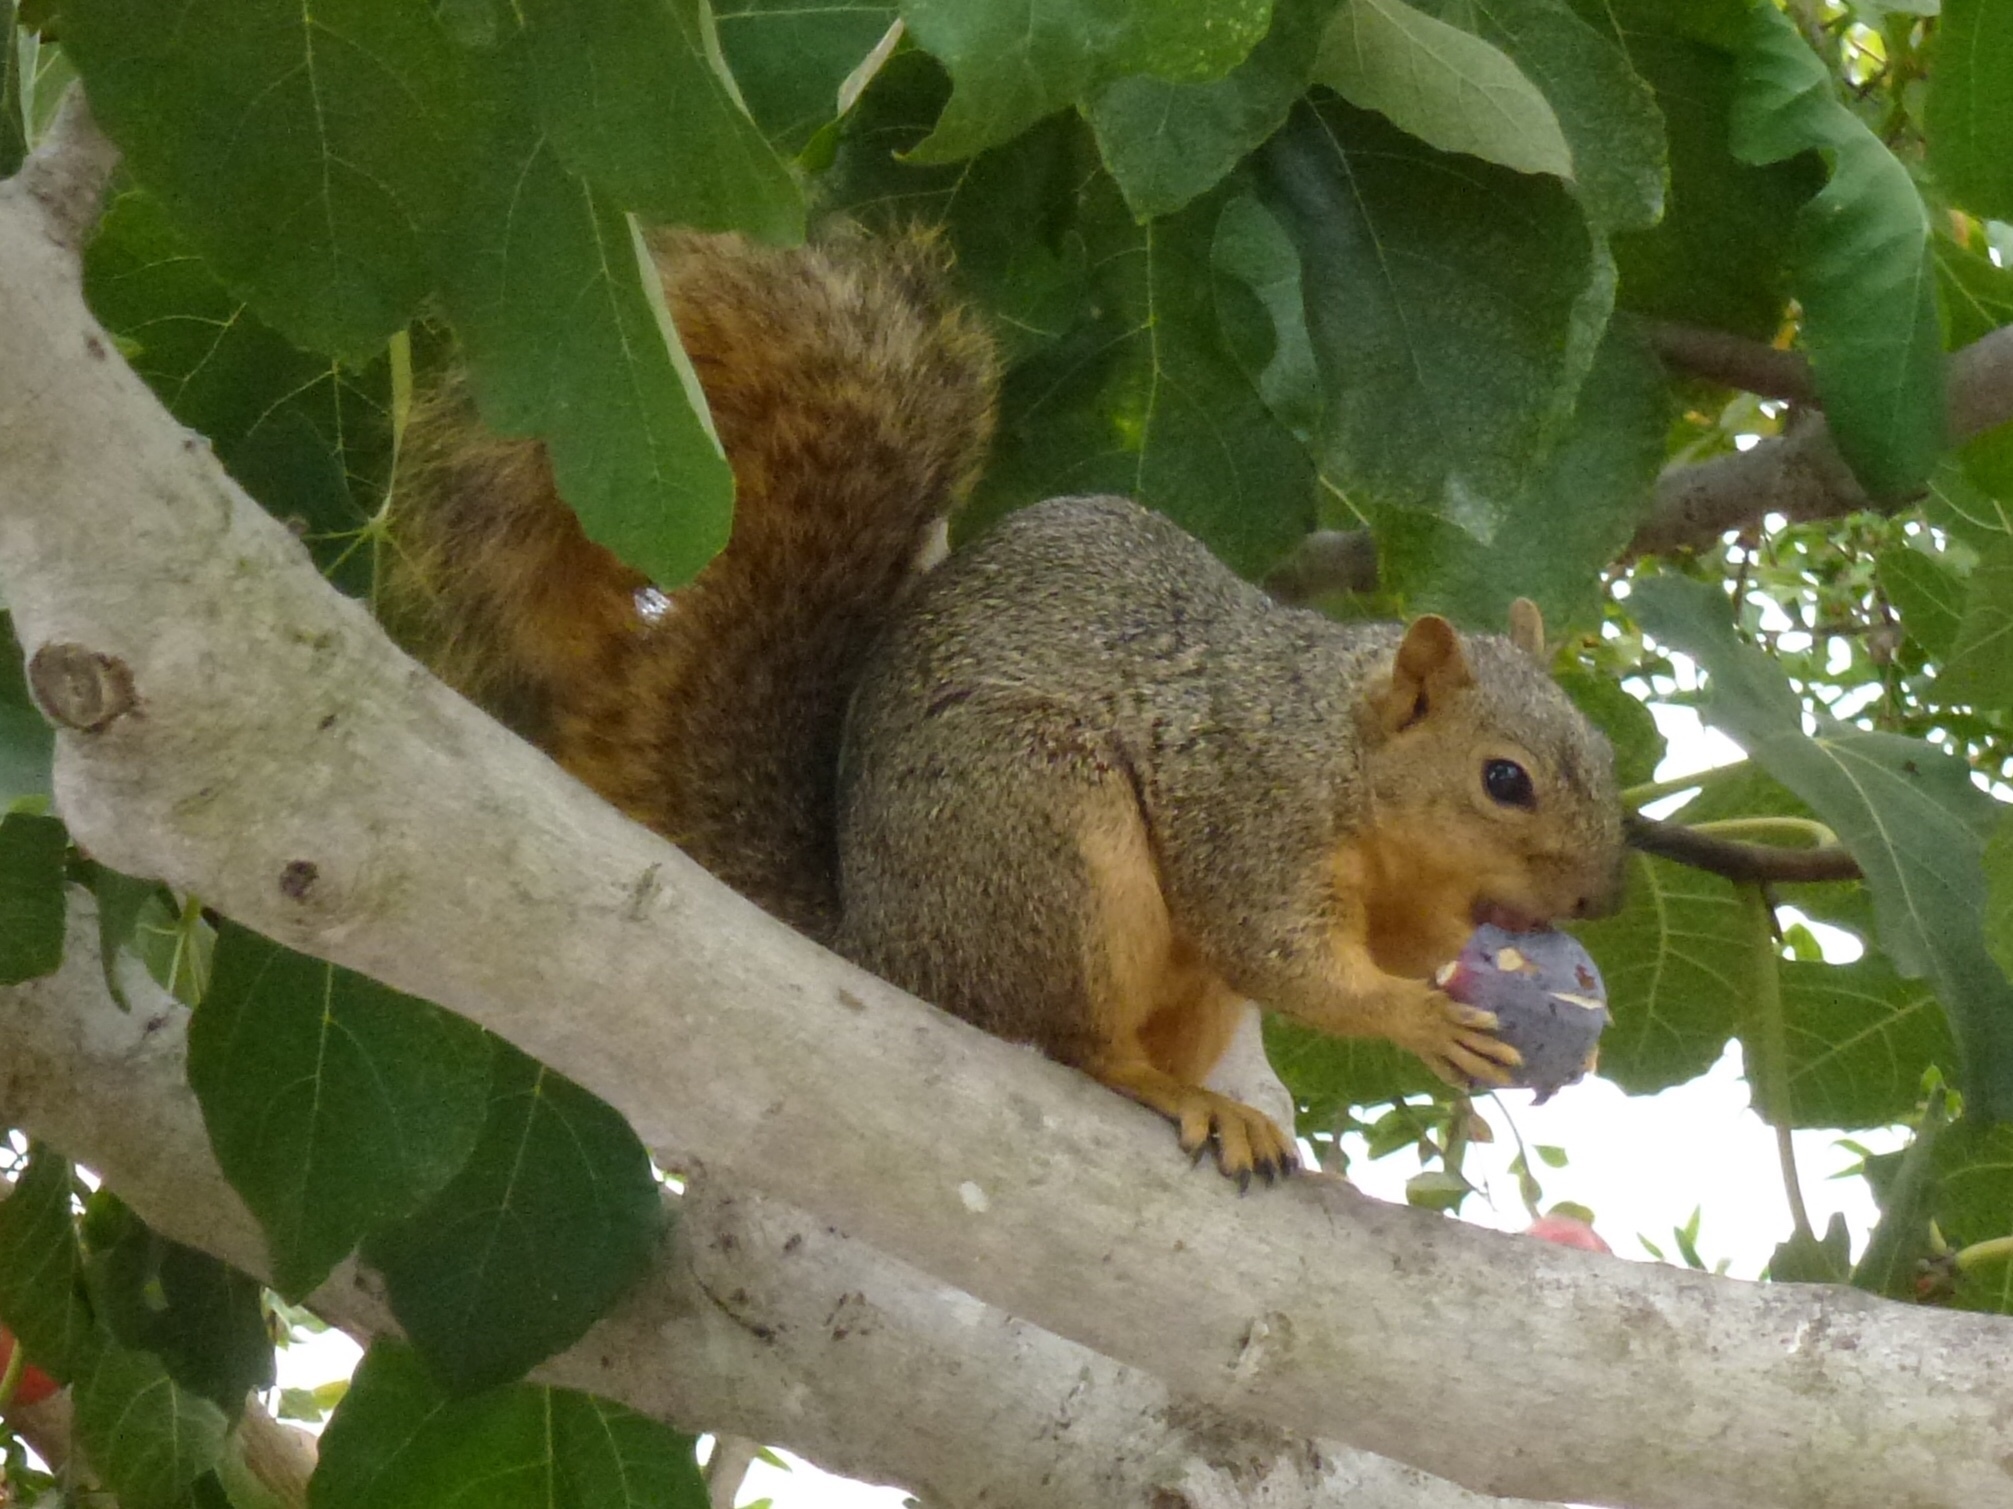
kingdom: Animalia
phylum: Chordata
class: Mammalia
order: Rodentia
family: Sciuridae
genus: Sciurus
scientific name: Sciurus niger
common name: Fox squirrel
